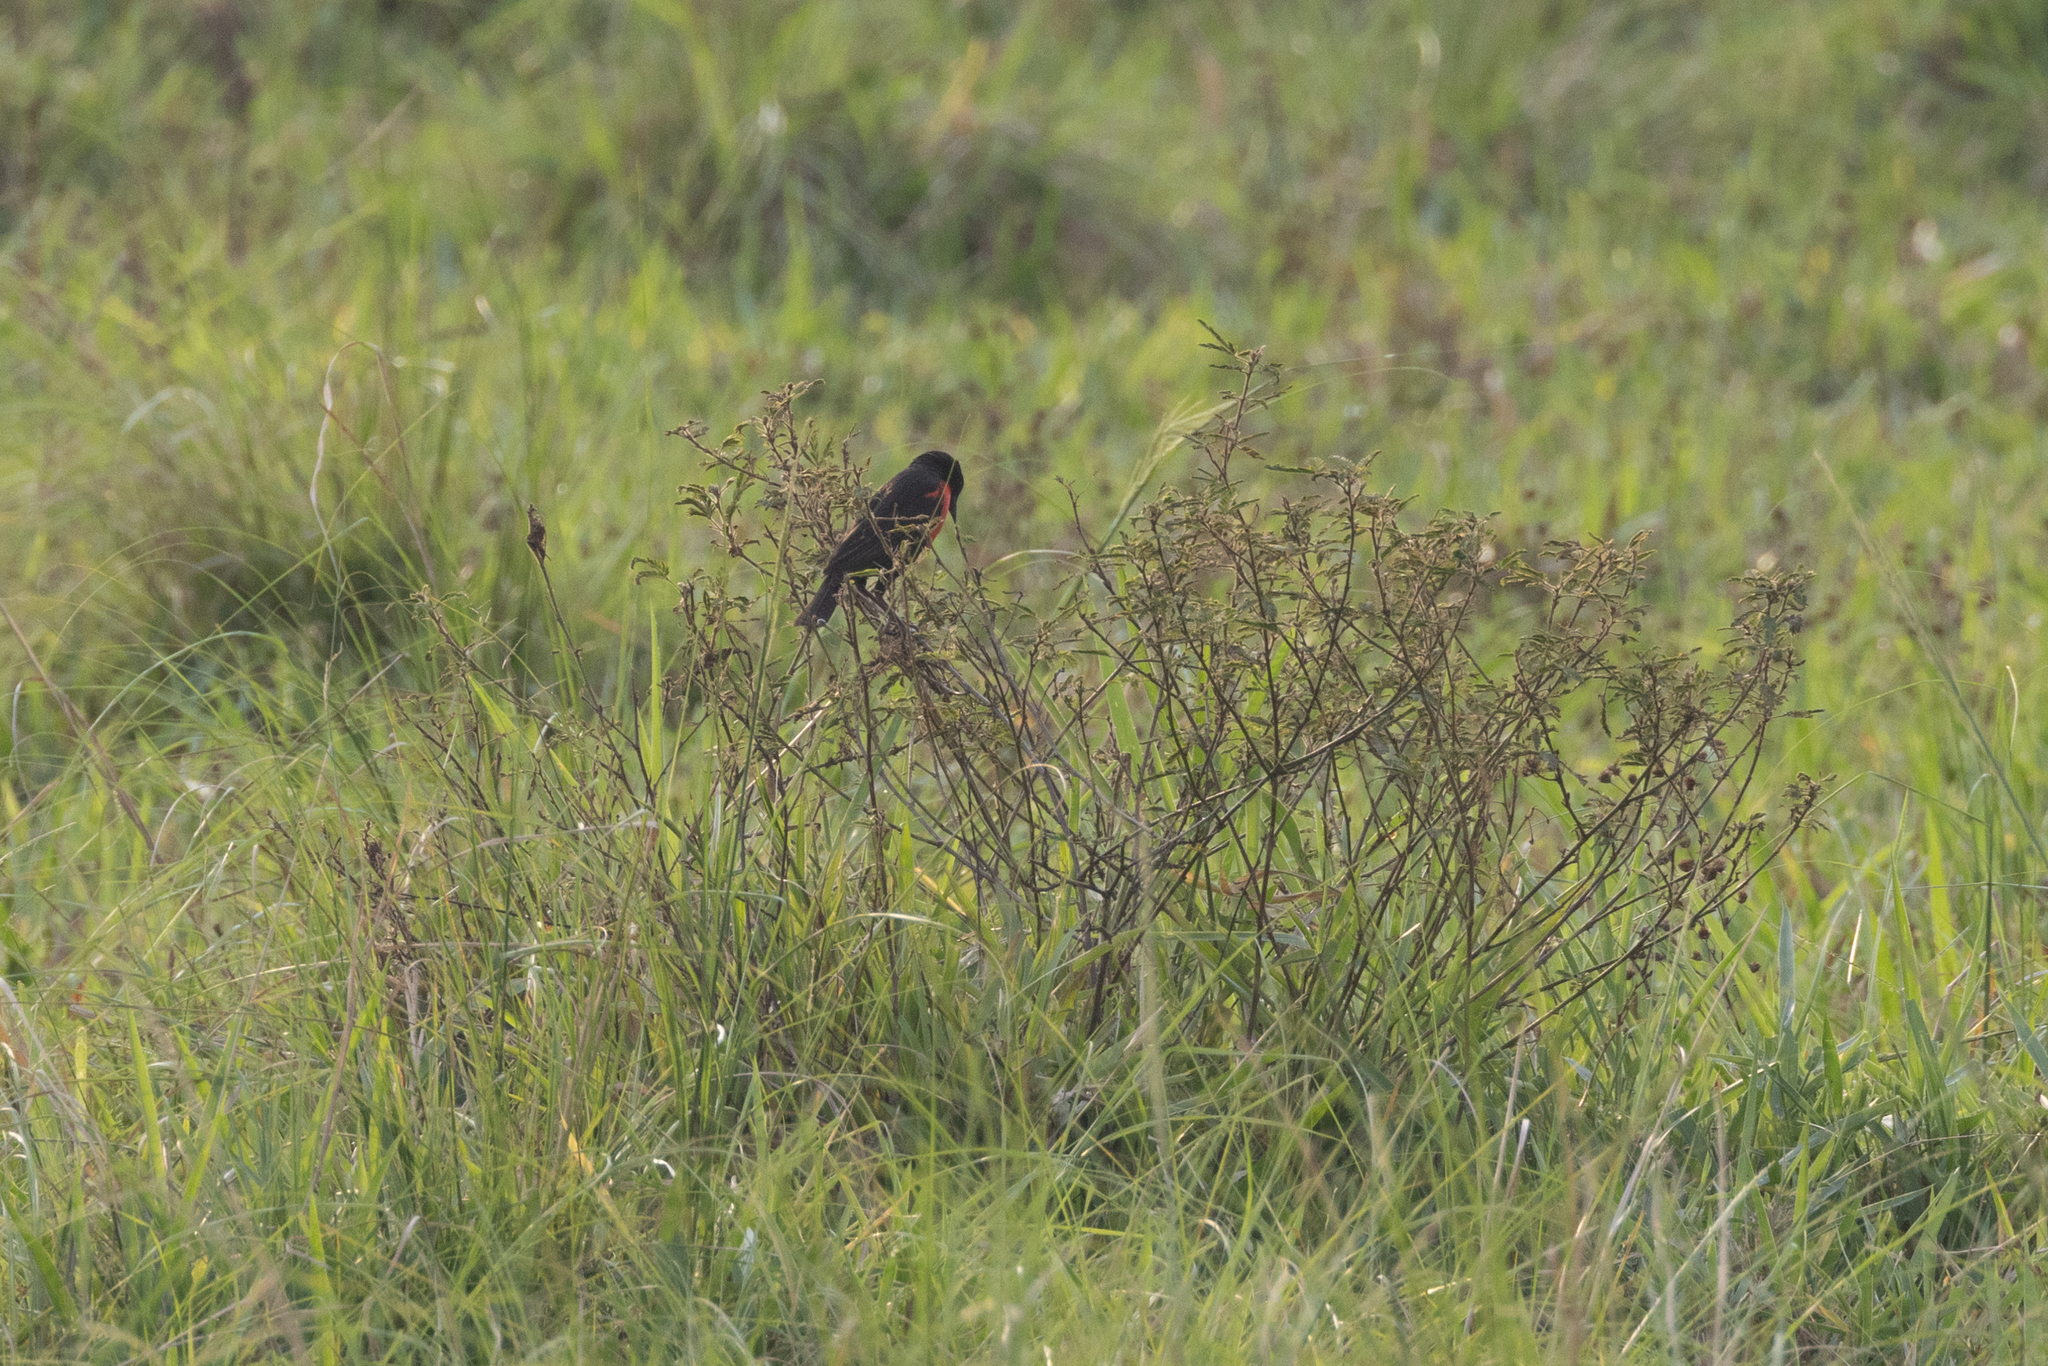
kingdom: Animalia
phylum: Chordata
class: Aves
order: Passeriformes
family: Icteridae
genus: Sturnella
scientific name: Sturnella militaris
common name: Red-breasted blackbird
